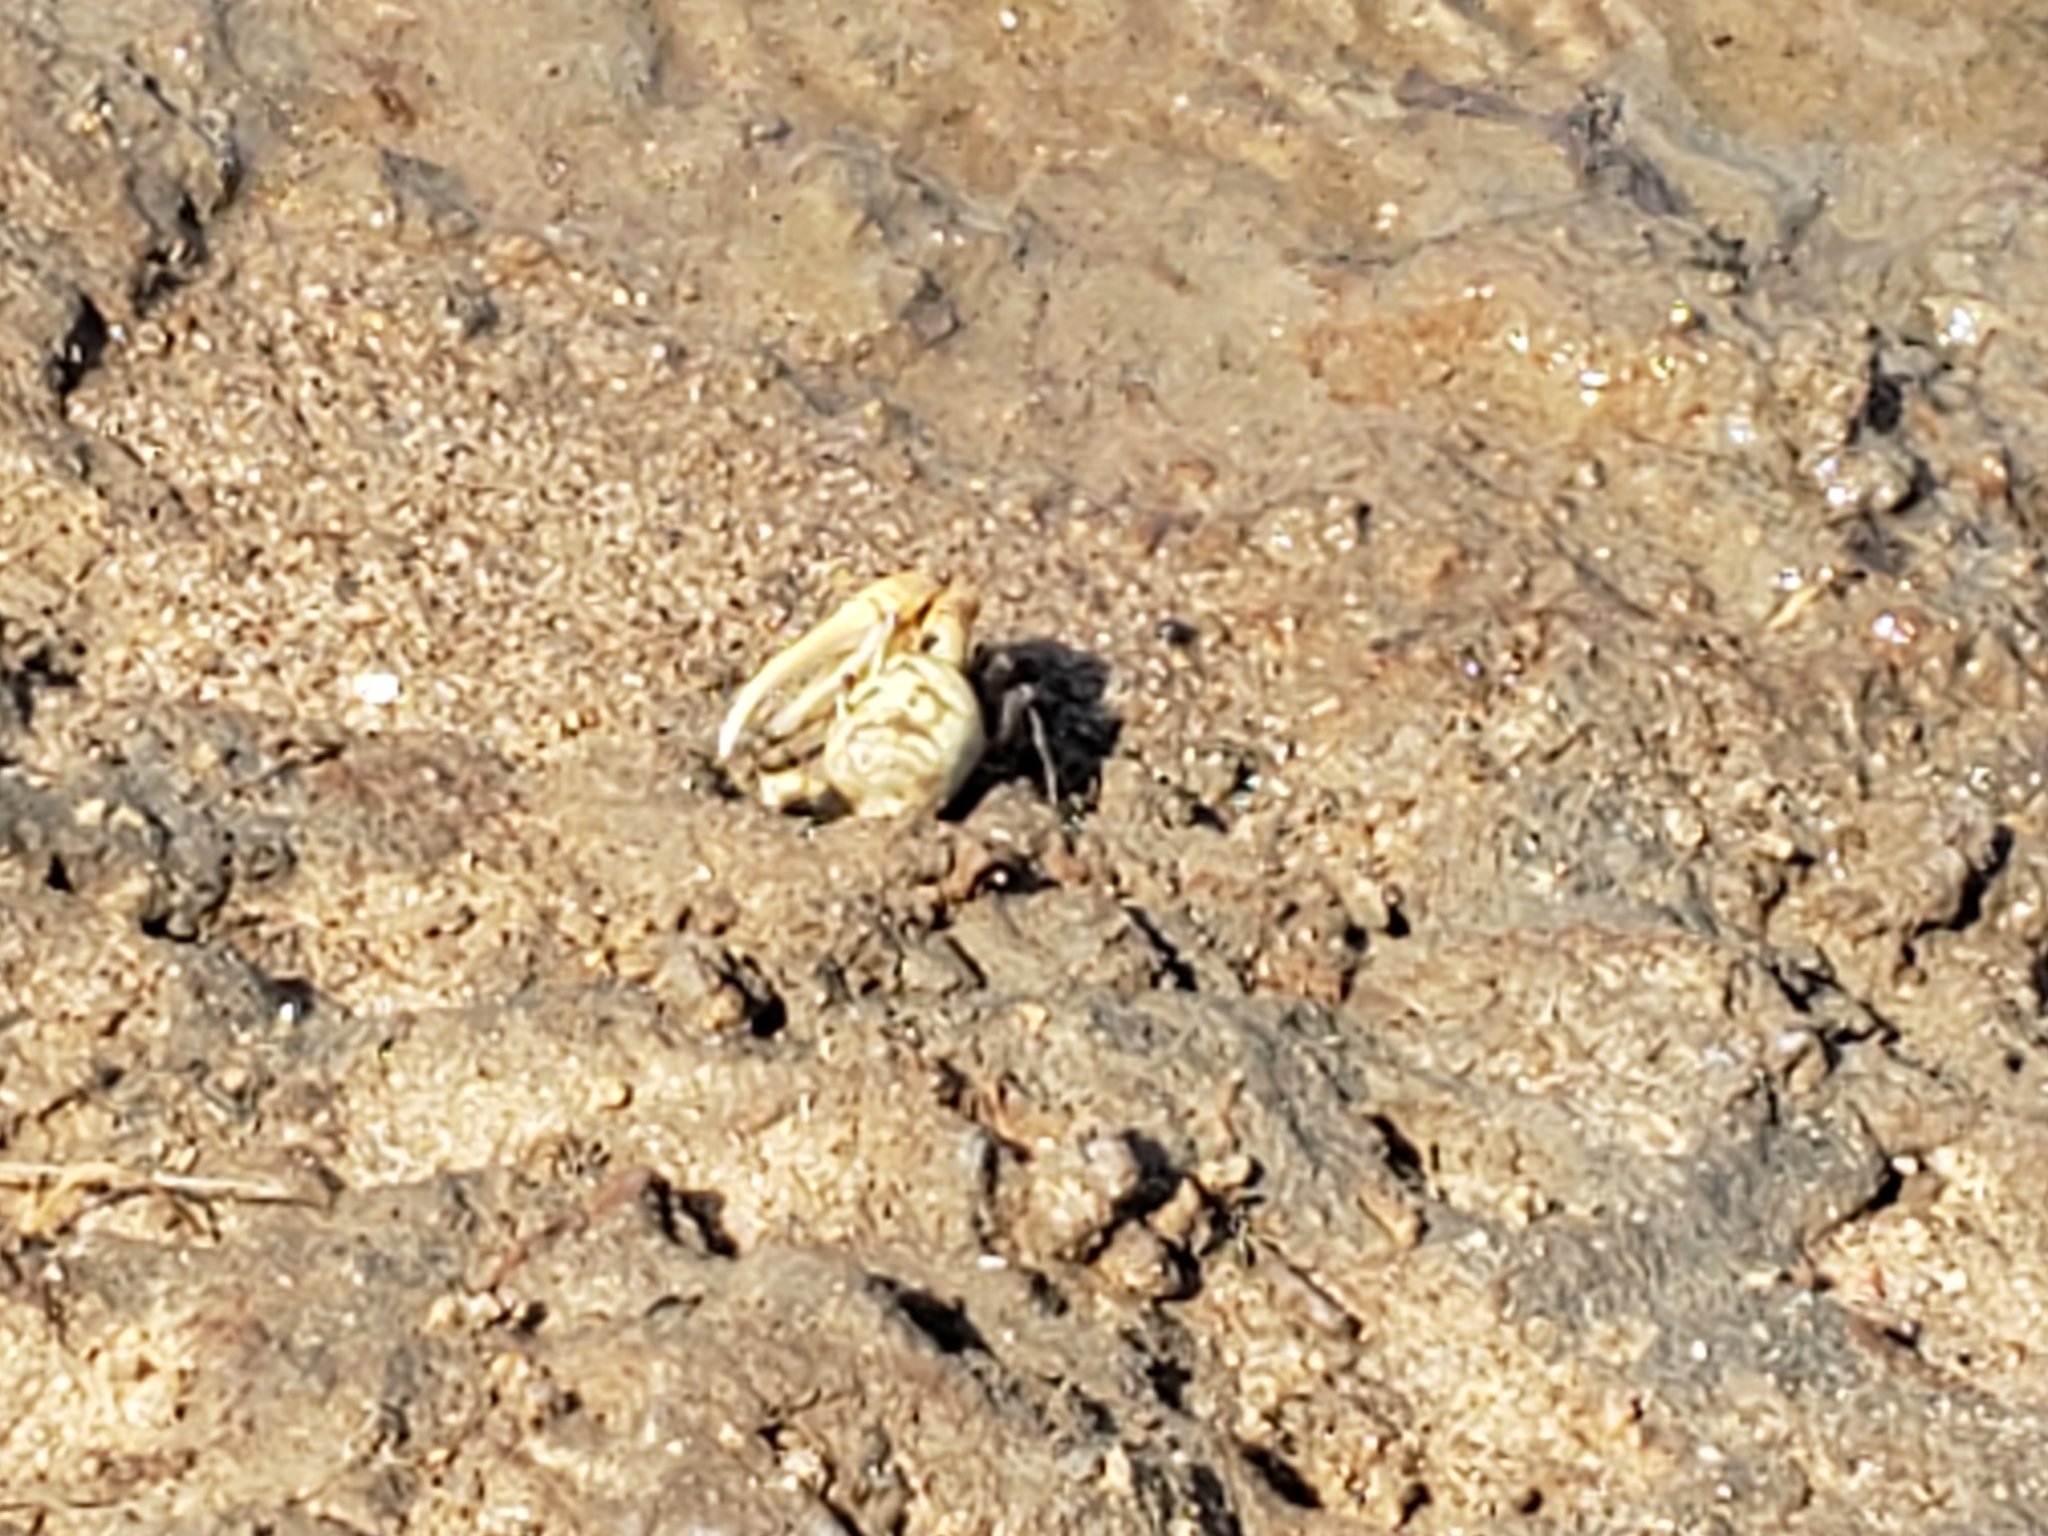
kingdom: Animalia
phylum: Arthropoda
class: Malacostraca
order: Decapoda
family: Ocypodidae
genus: Leptuca
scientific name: Leptuca crenulata
